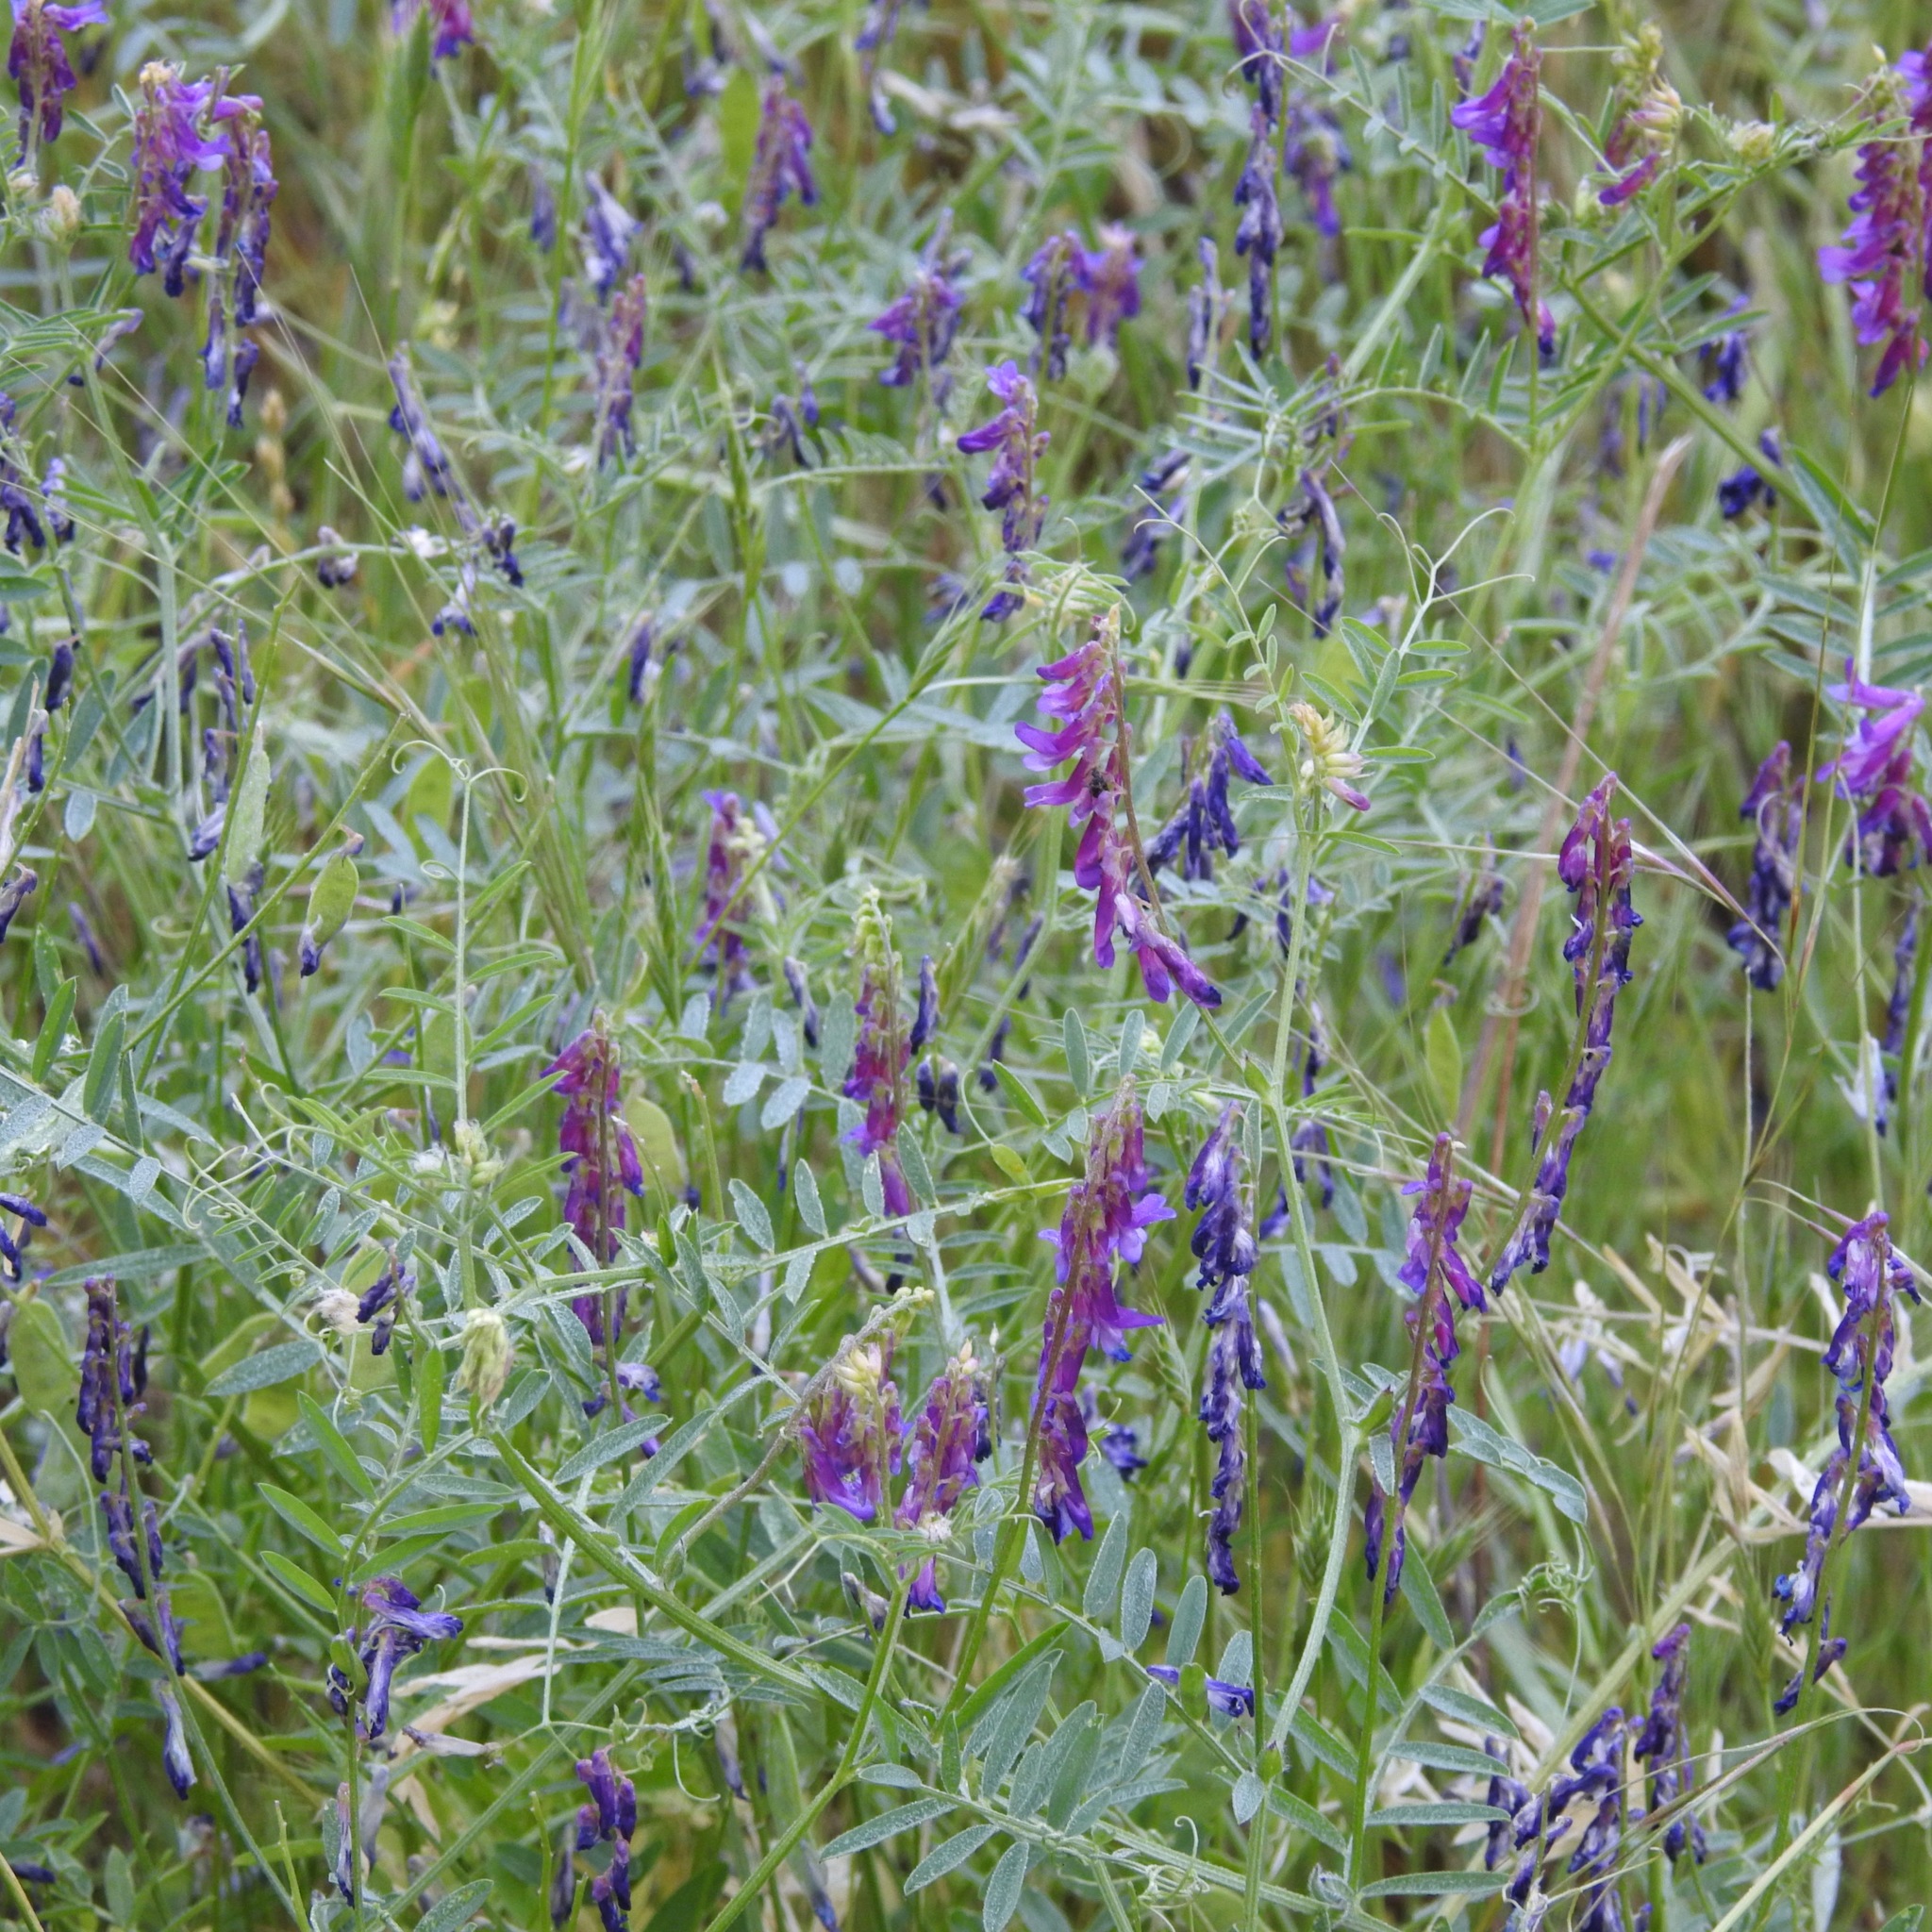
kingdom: Plantae
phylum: Tracheophyta
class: Magnoliopsida
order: Fabales
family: Fabaceae
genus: Vicia
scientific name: Vicia villosa
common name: Fodder vetch
